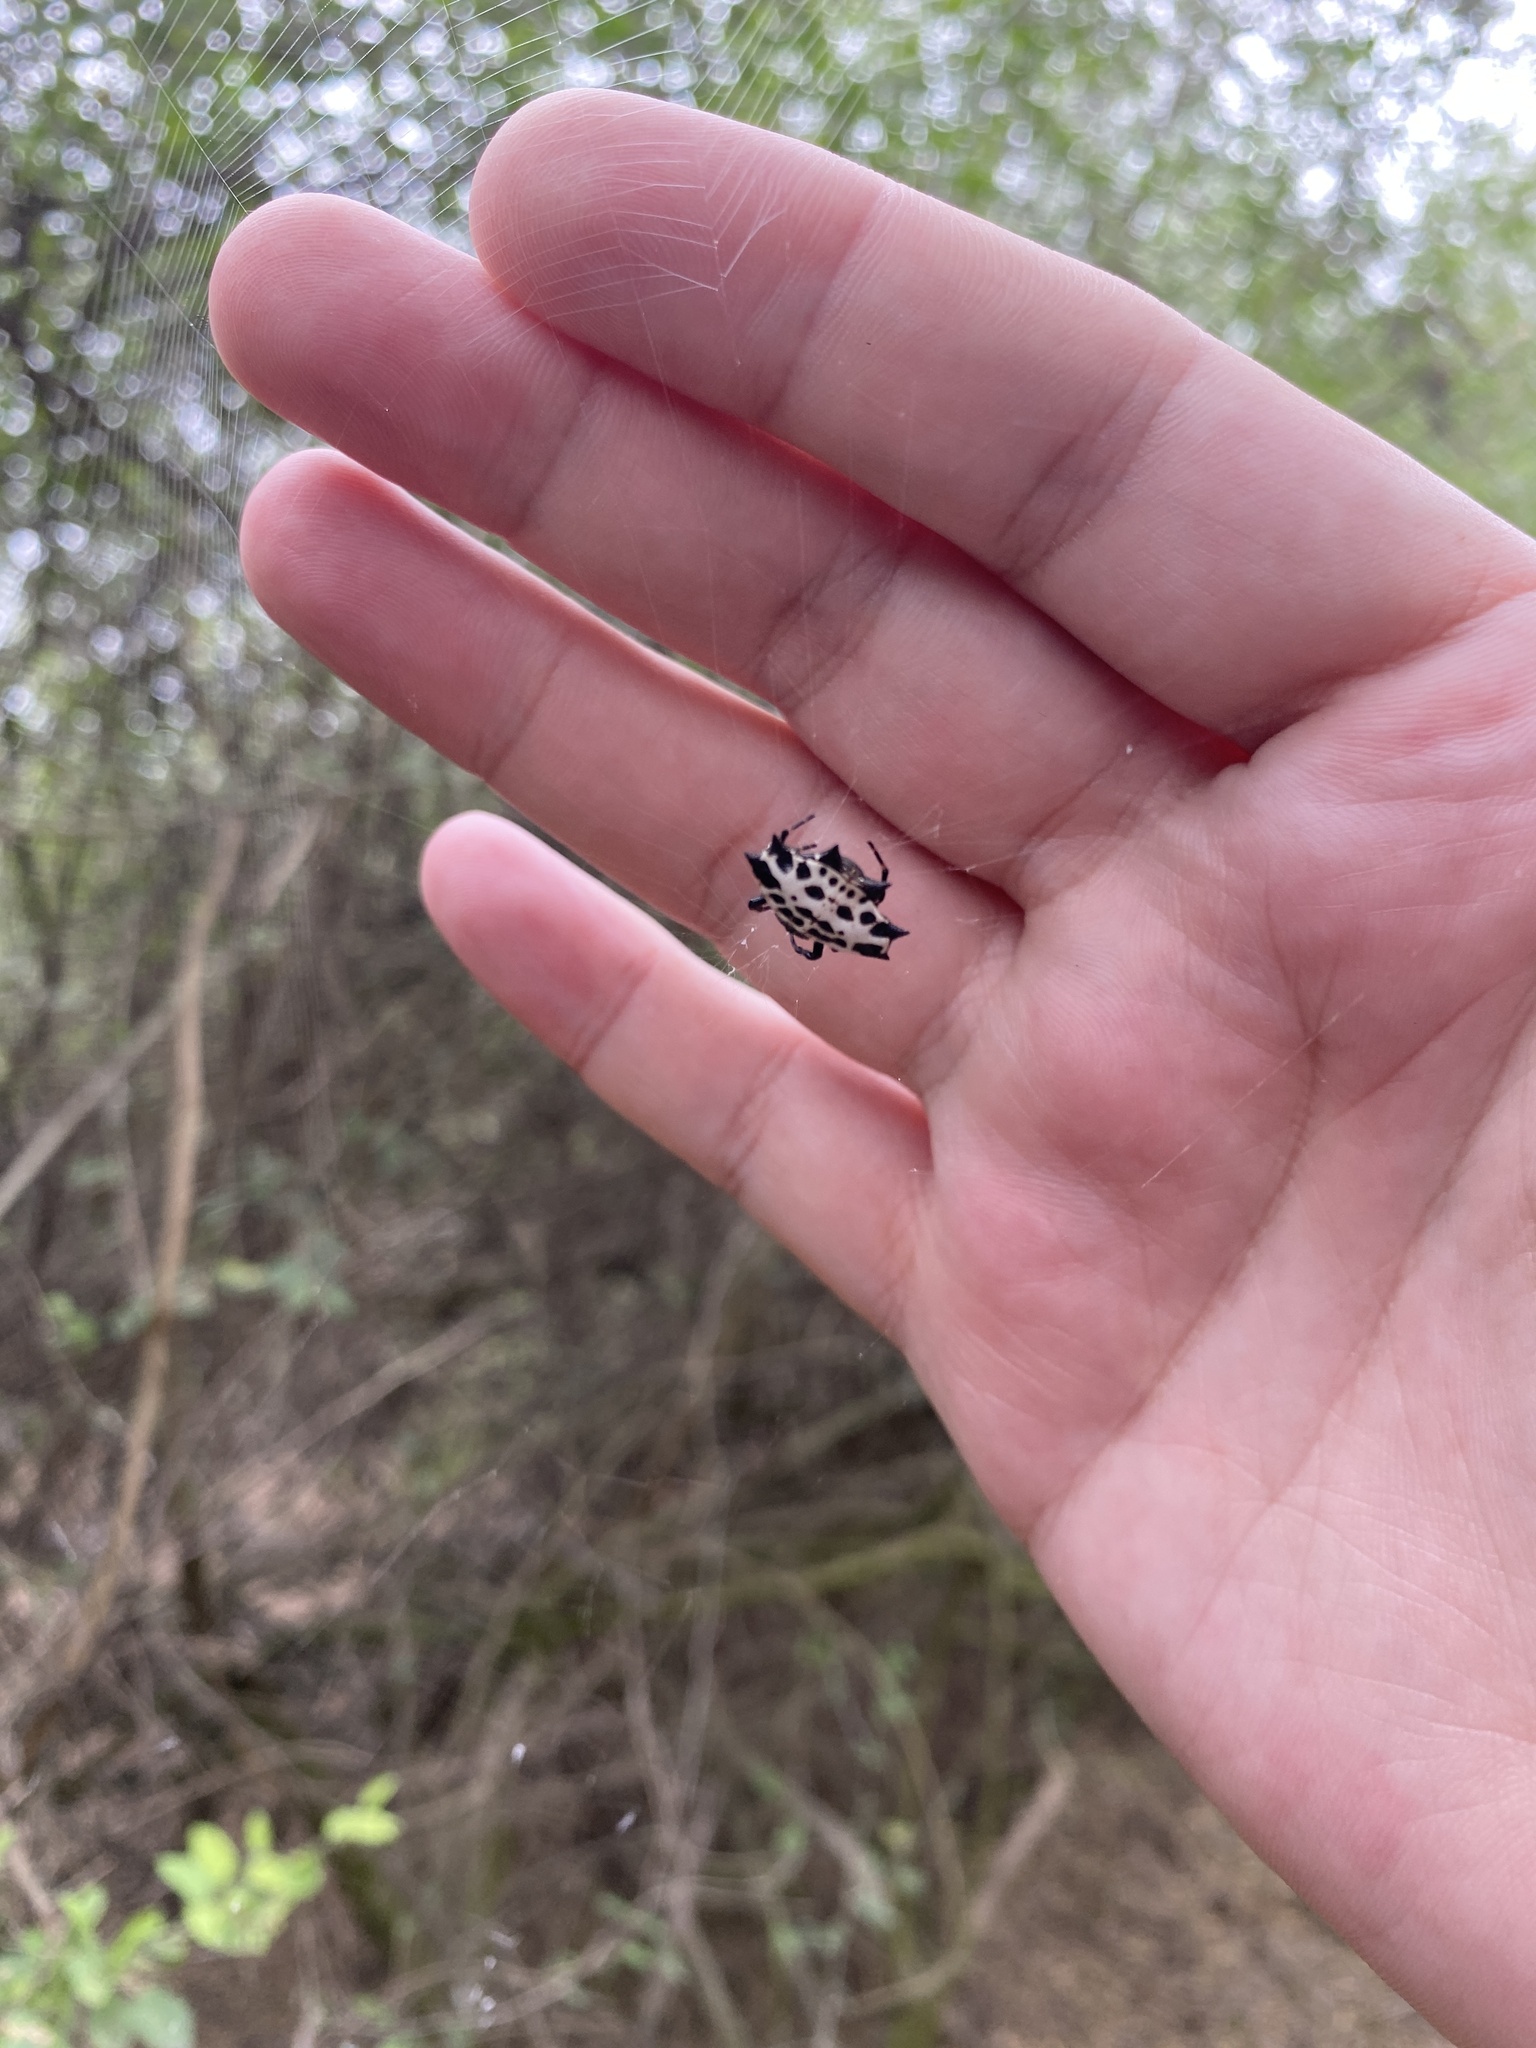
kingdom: Animalia
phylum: Arthropoda
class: Arachnida
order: Araneae
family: Araneidae
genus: Gasteracantha
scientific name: Gasteracantha cancriformis
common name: Orb weavers
